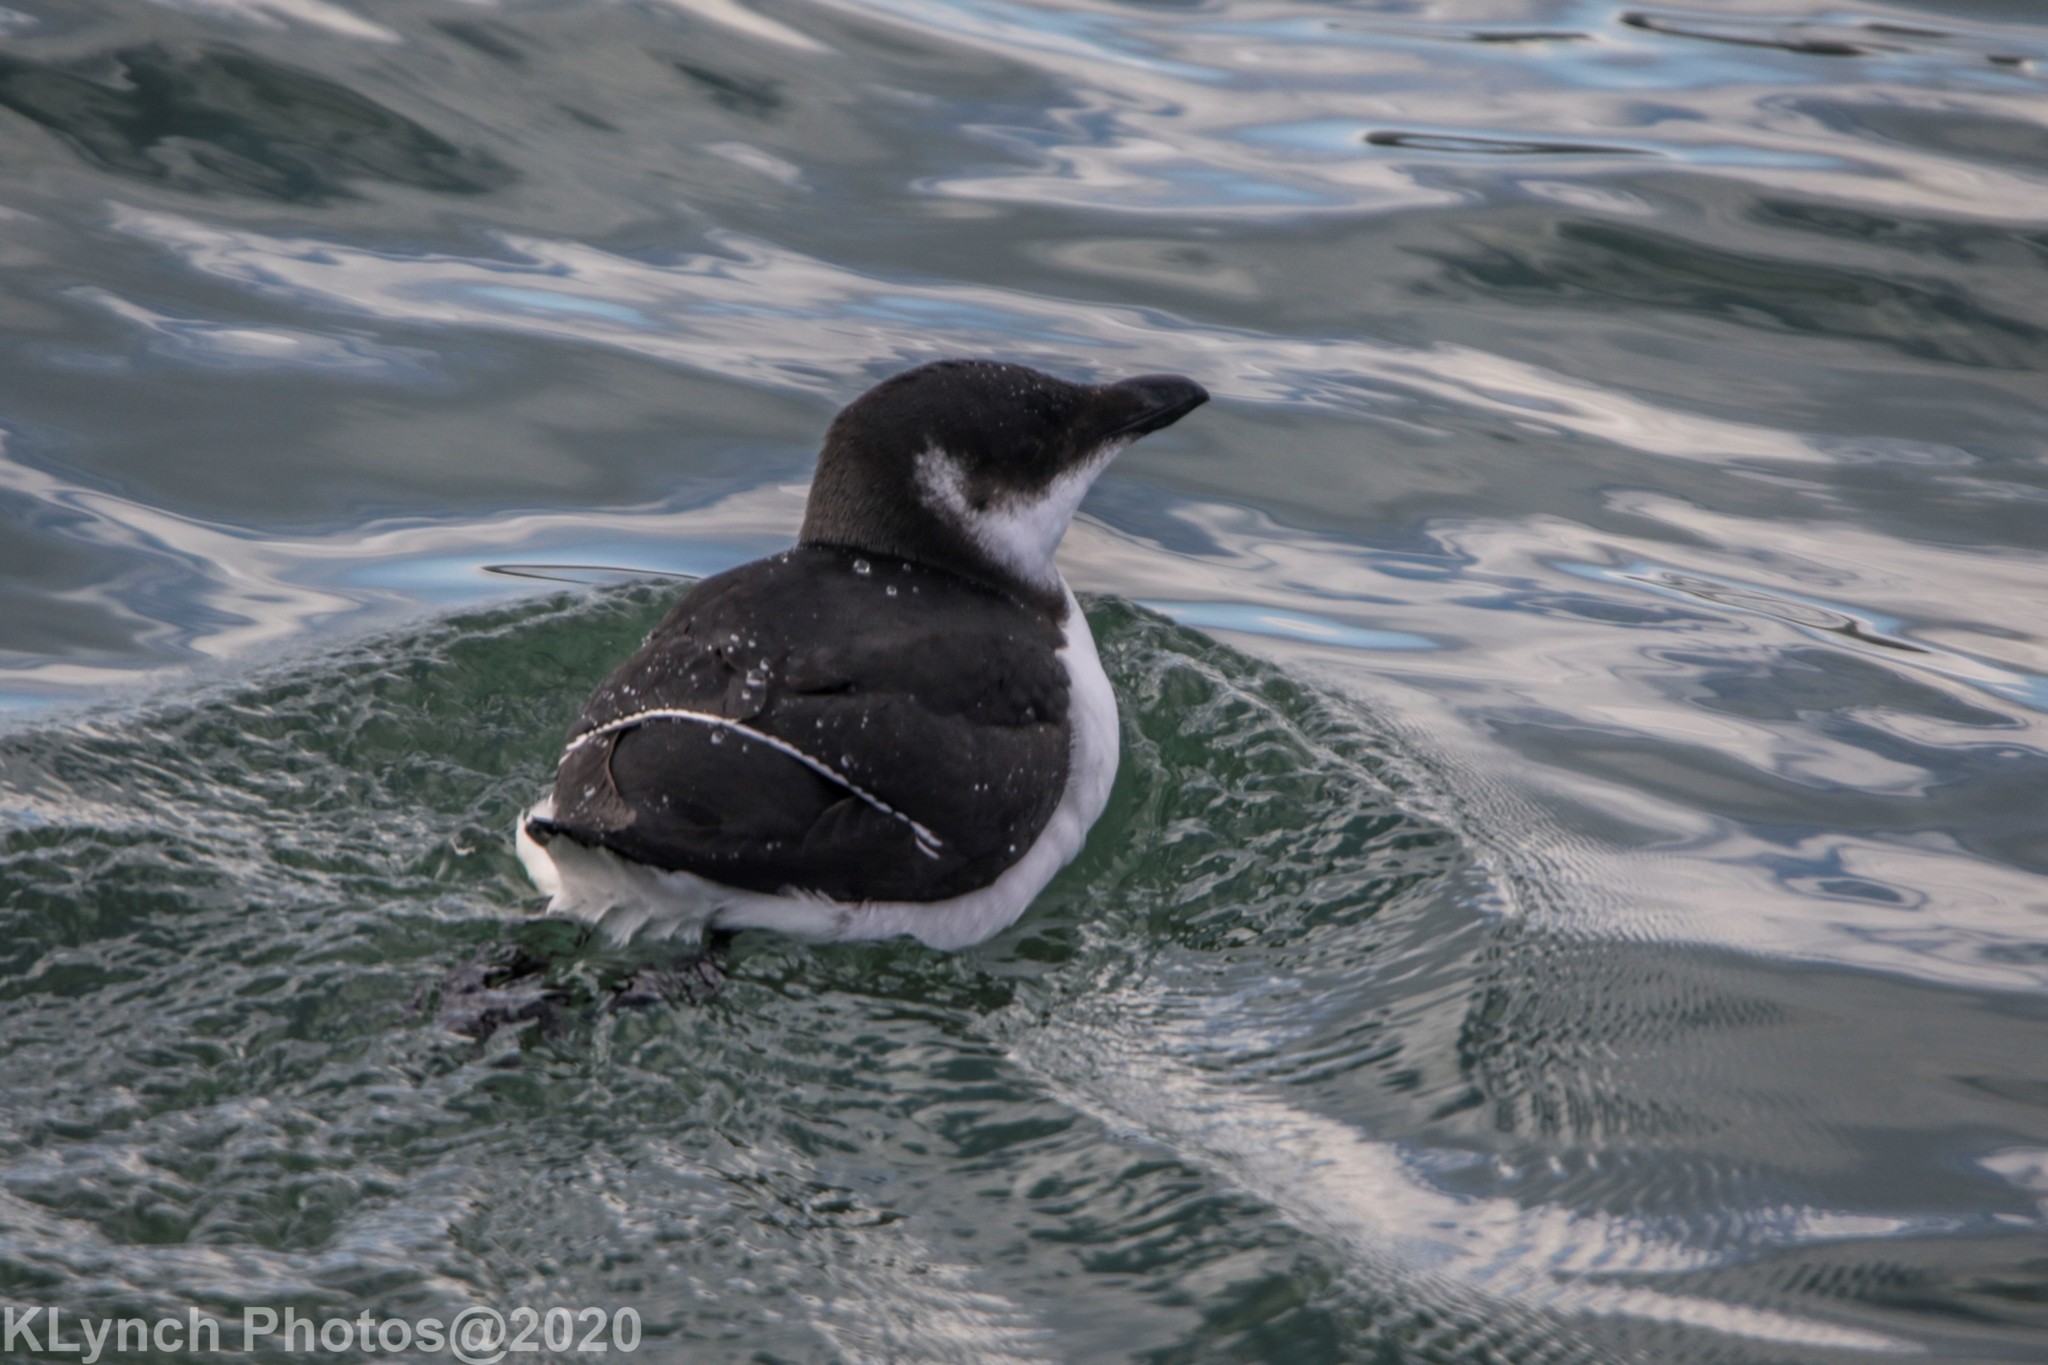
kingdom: Animalia
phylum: Chordata
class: Aves
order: Charadriiformes
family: Alcidae
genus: Alca
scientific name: Alca torda
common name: Razorbill
